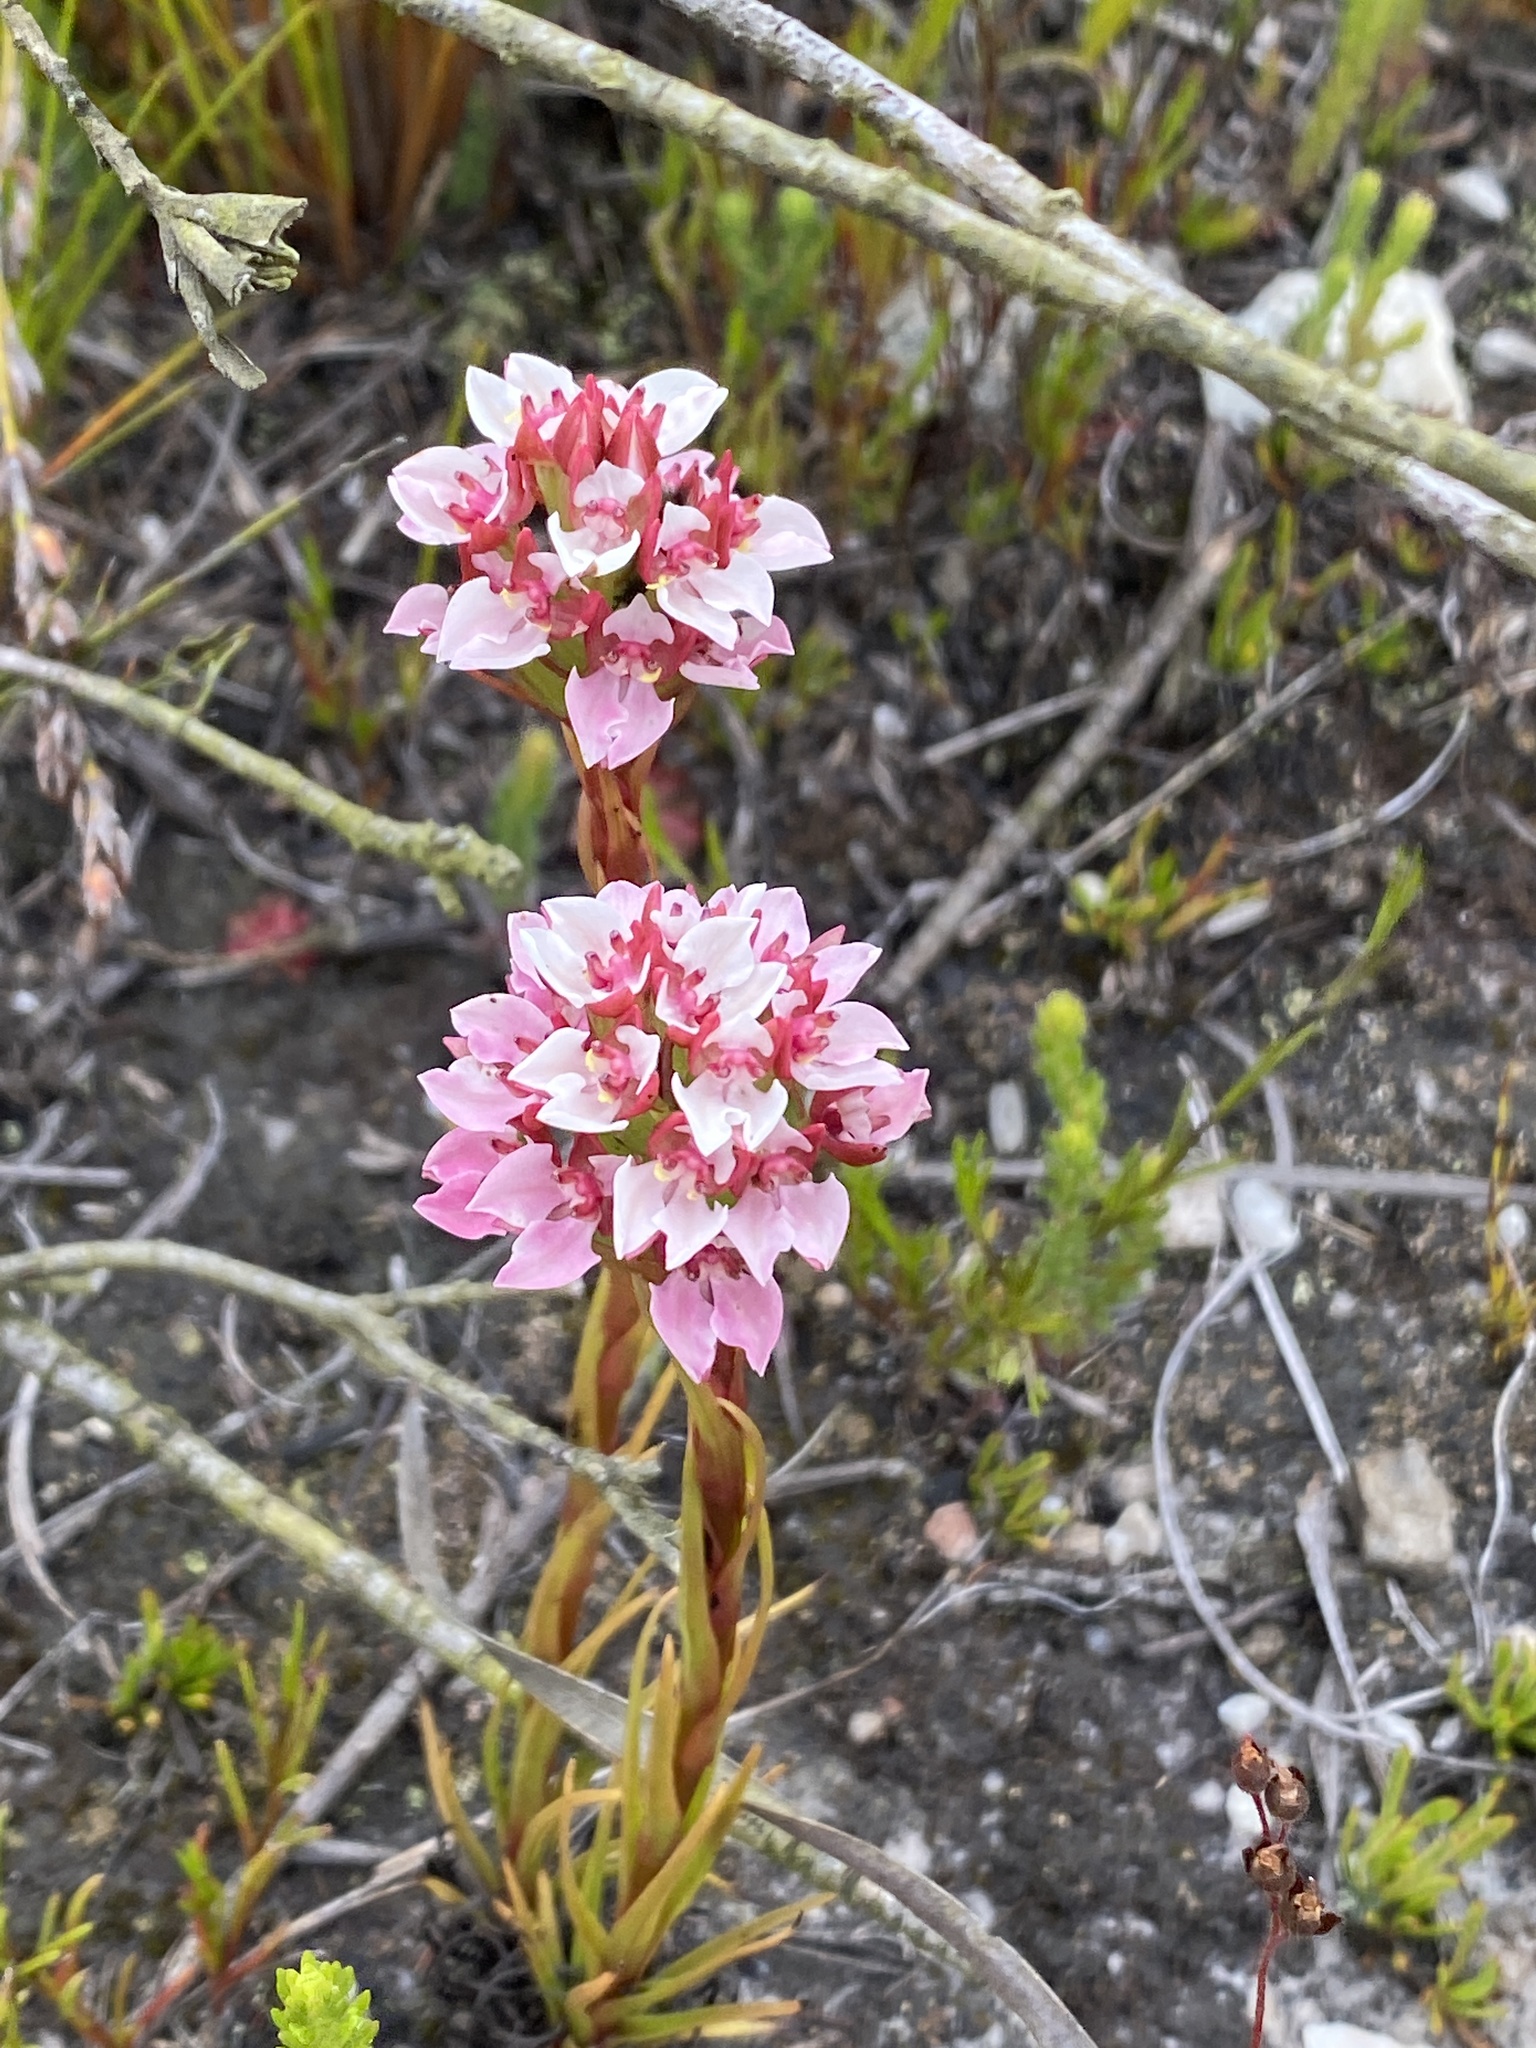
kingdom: Plantae
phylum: Tracheophyta
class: Liliopsida
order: Asparagales
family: Orchidaceae
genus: Ceratandra
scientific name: Ceratandra globosa
